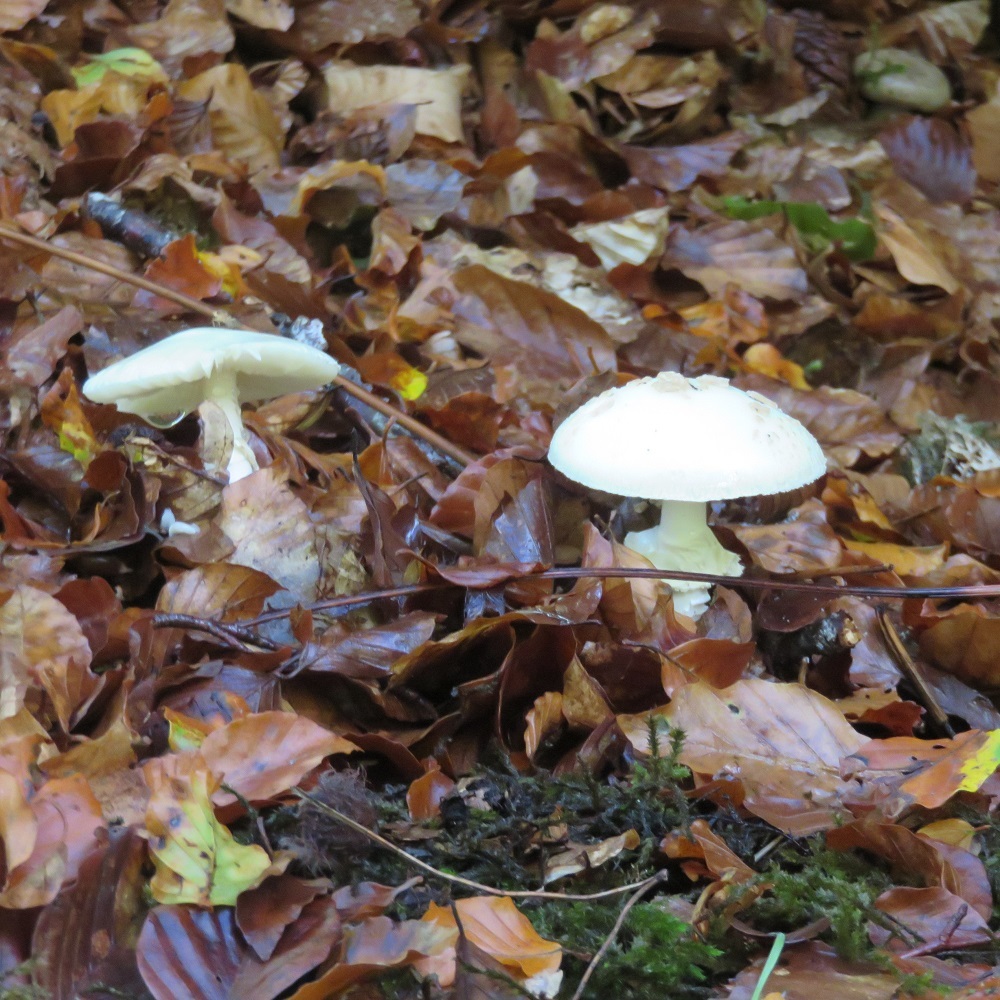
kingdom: Fungi
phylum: Basidiomycota
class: Agaricomycetes
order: Agaricales
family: Amanitaceae
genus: Amanita
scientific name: Amanita citrina
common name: False death-cap
